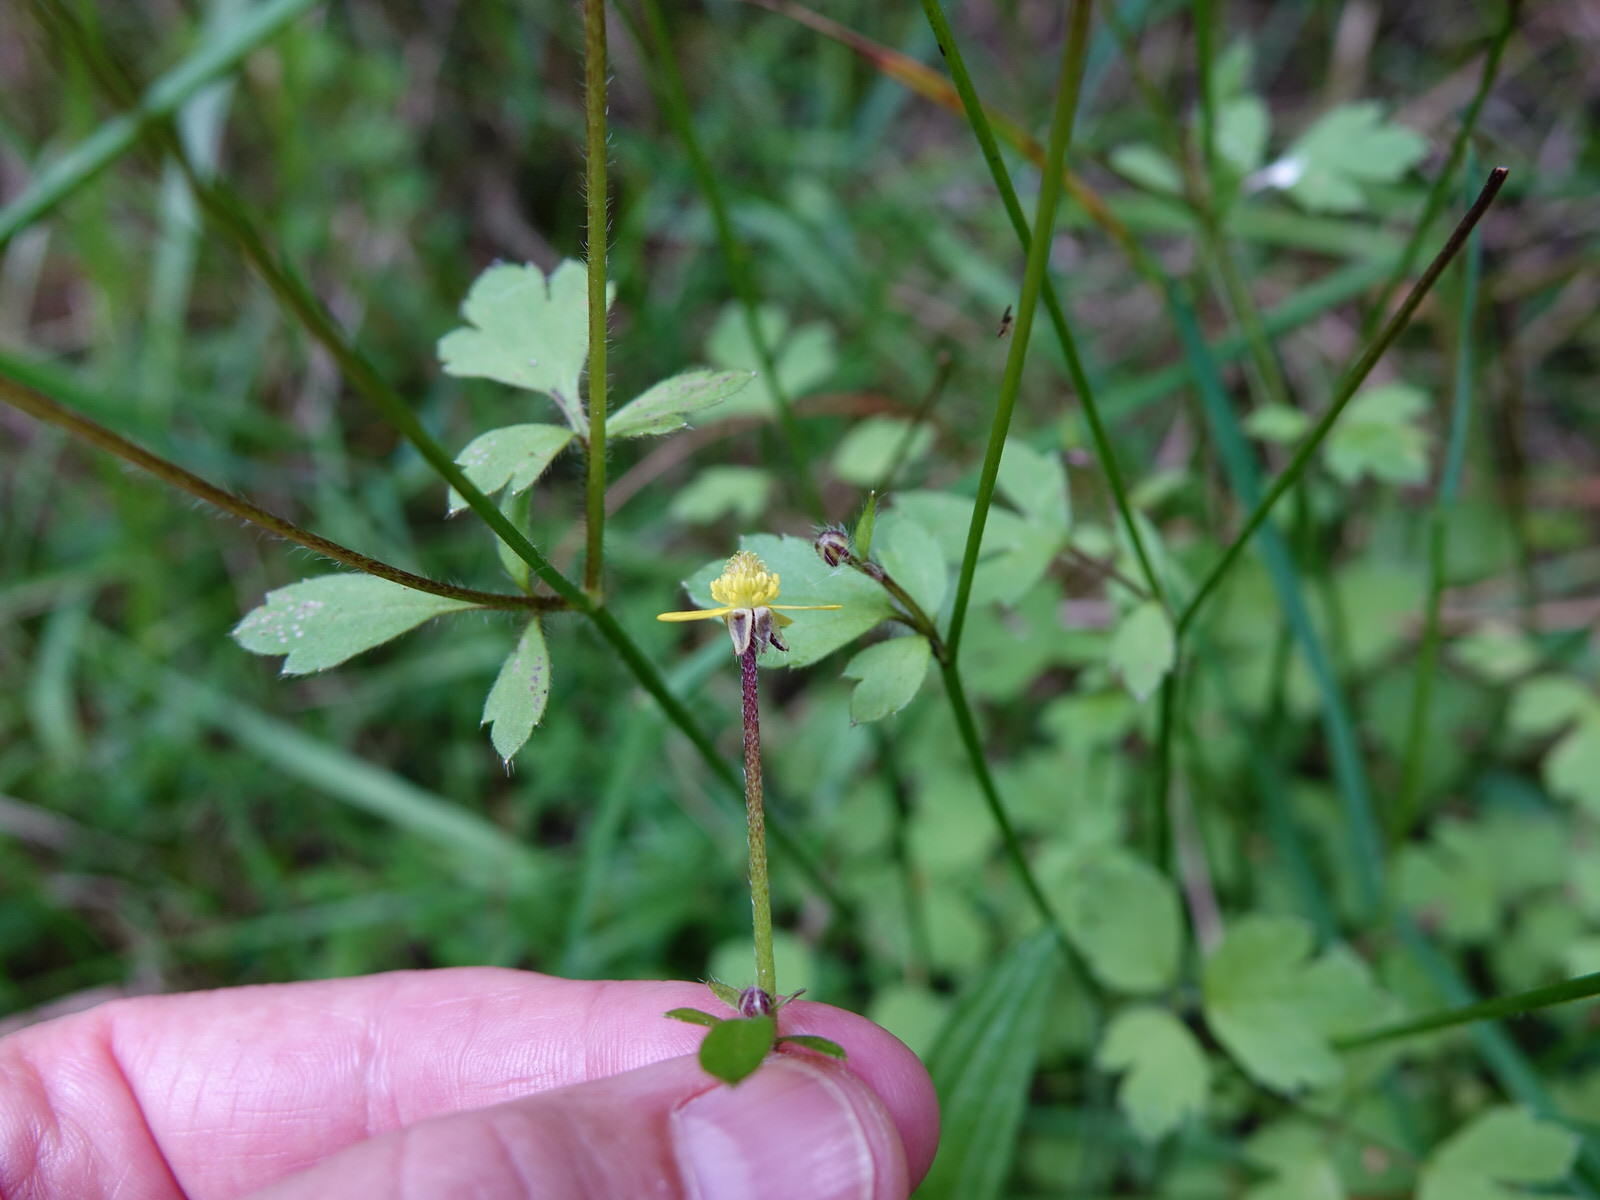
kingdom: Plantae
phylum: Tracheophyta
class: Magnoliopsida
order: Ranunculales
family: Ranunculaceae
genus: Ranunculus
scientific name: Ranunculus reflexus
